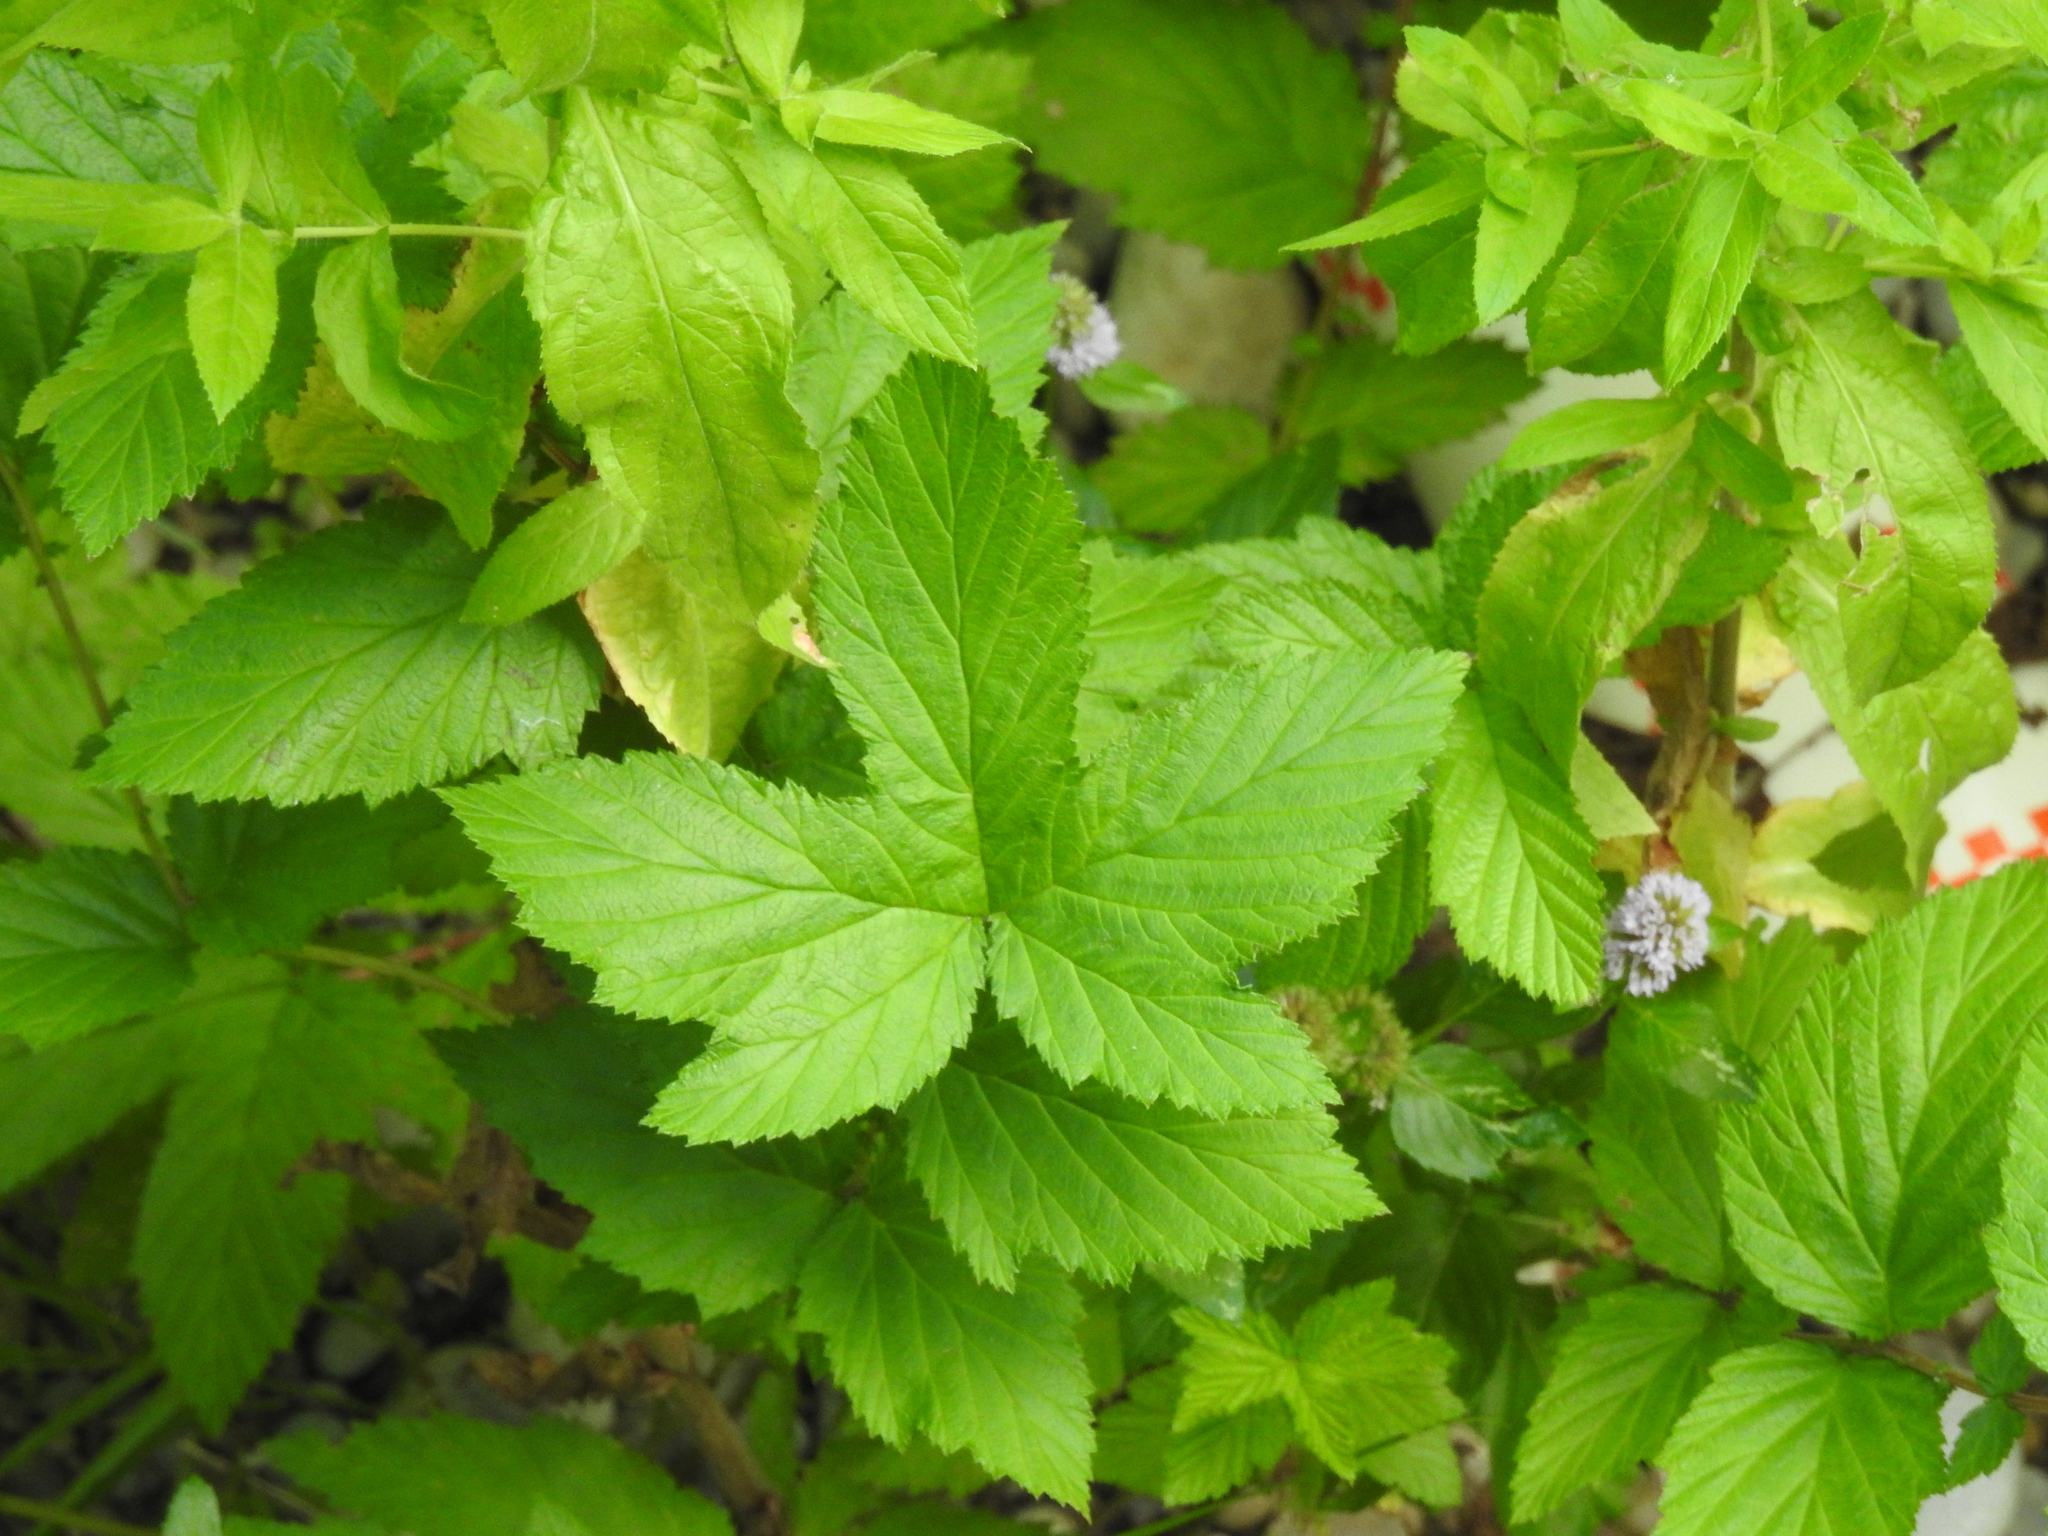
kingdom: Plantae
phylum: Tracheophyta
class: Magnoliopsida
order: Rosales
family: Rosaceae
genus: Filipendula
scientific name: Filipendula ulmaria
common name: Meadowsweet
